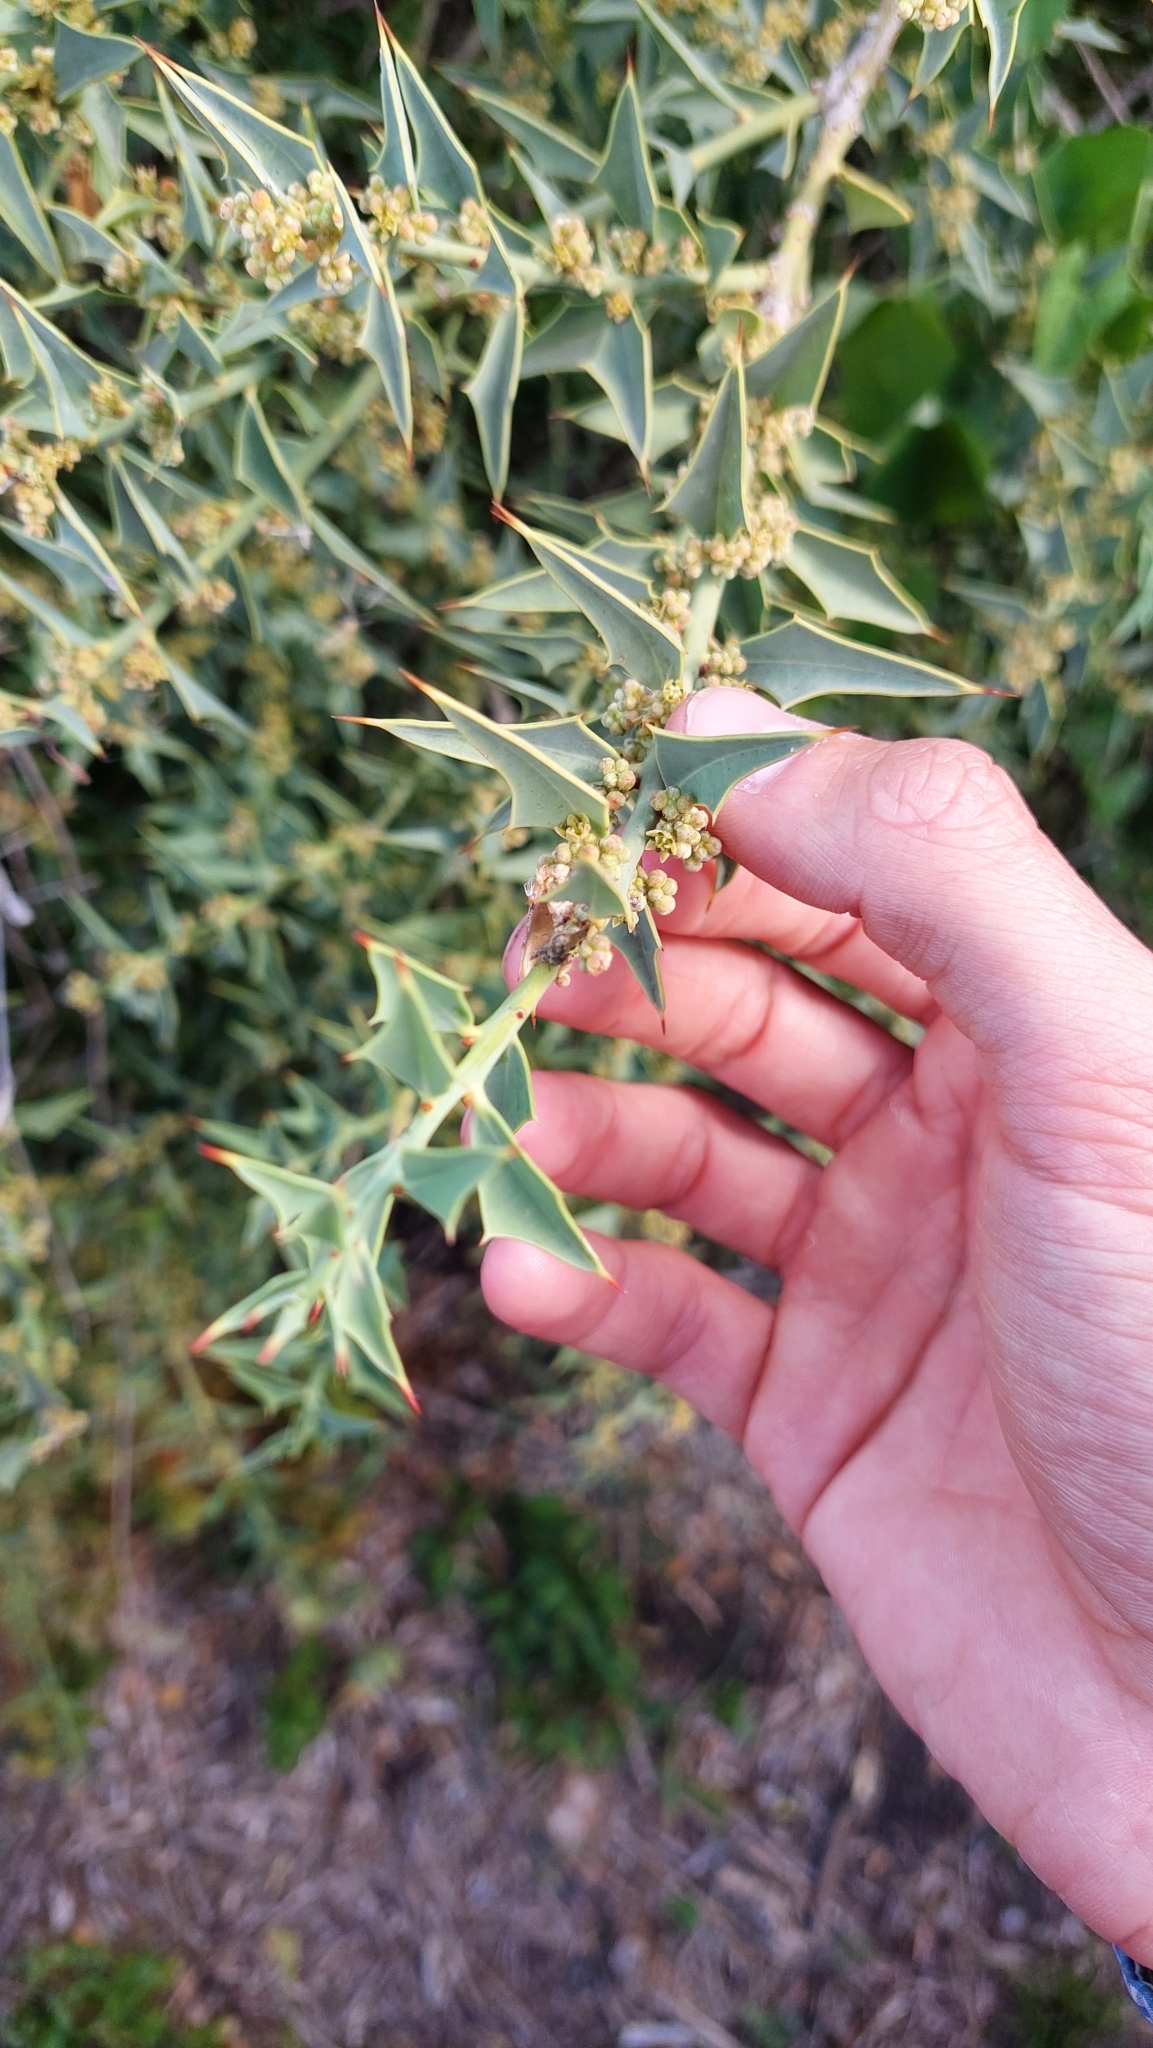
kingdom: Plantae
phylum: Tracheophyta
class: Magnoliopsida
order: Santalales
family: Cervantesiaceae
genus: Jodina
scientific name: Jodina rhombifolia
